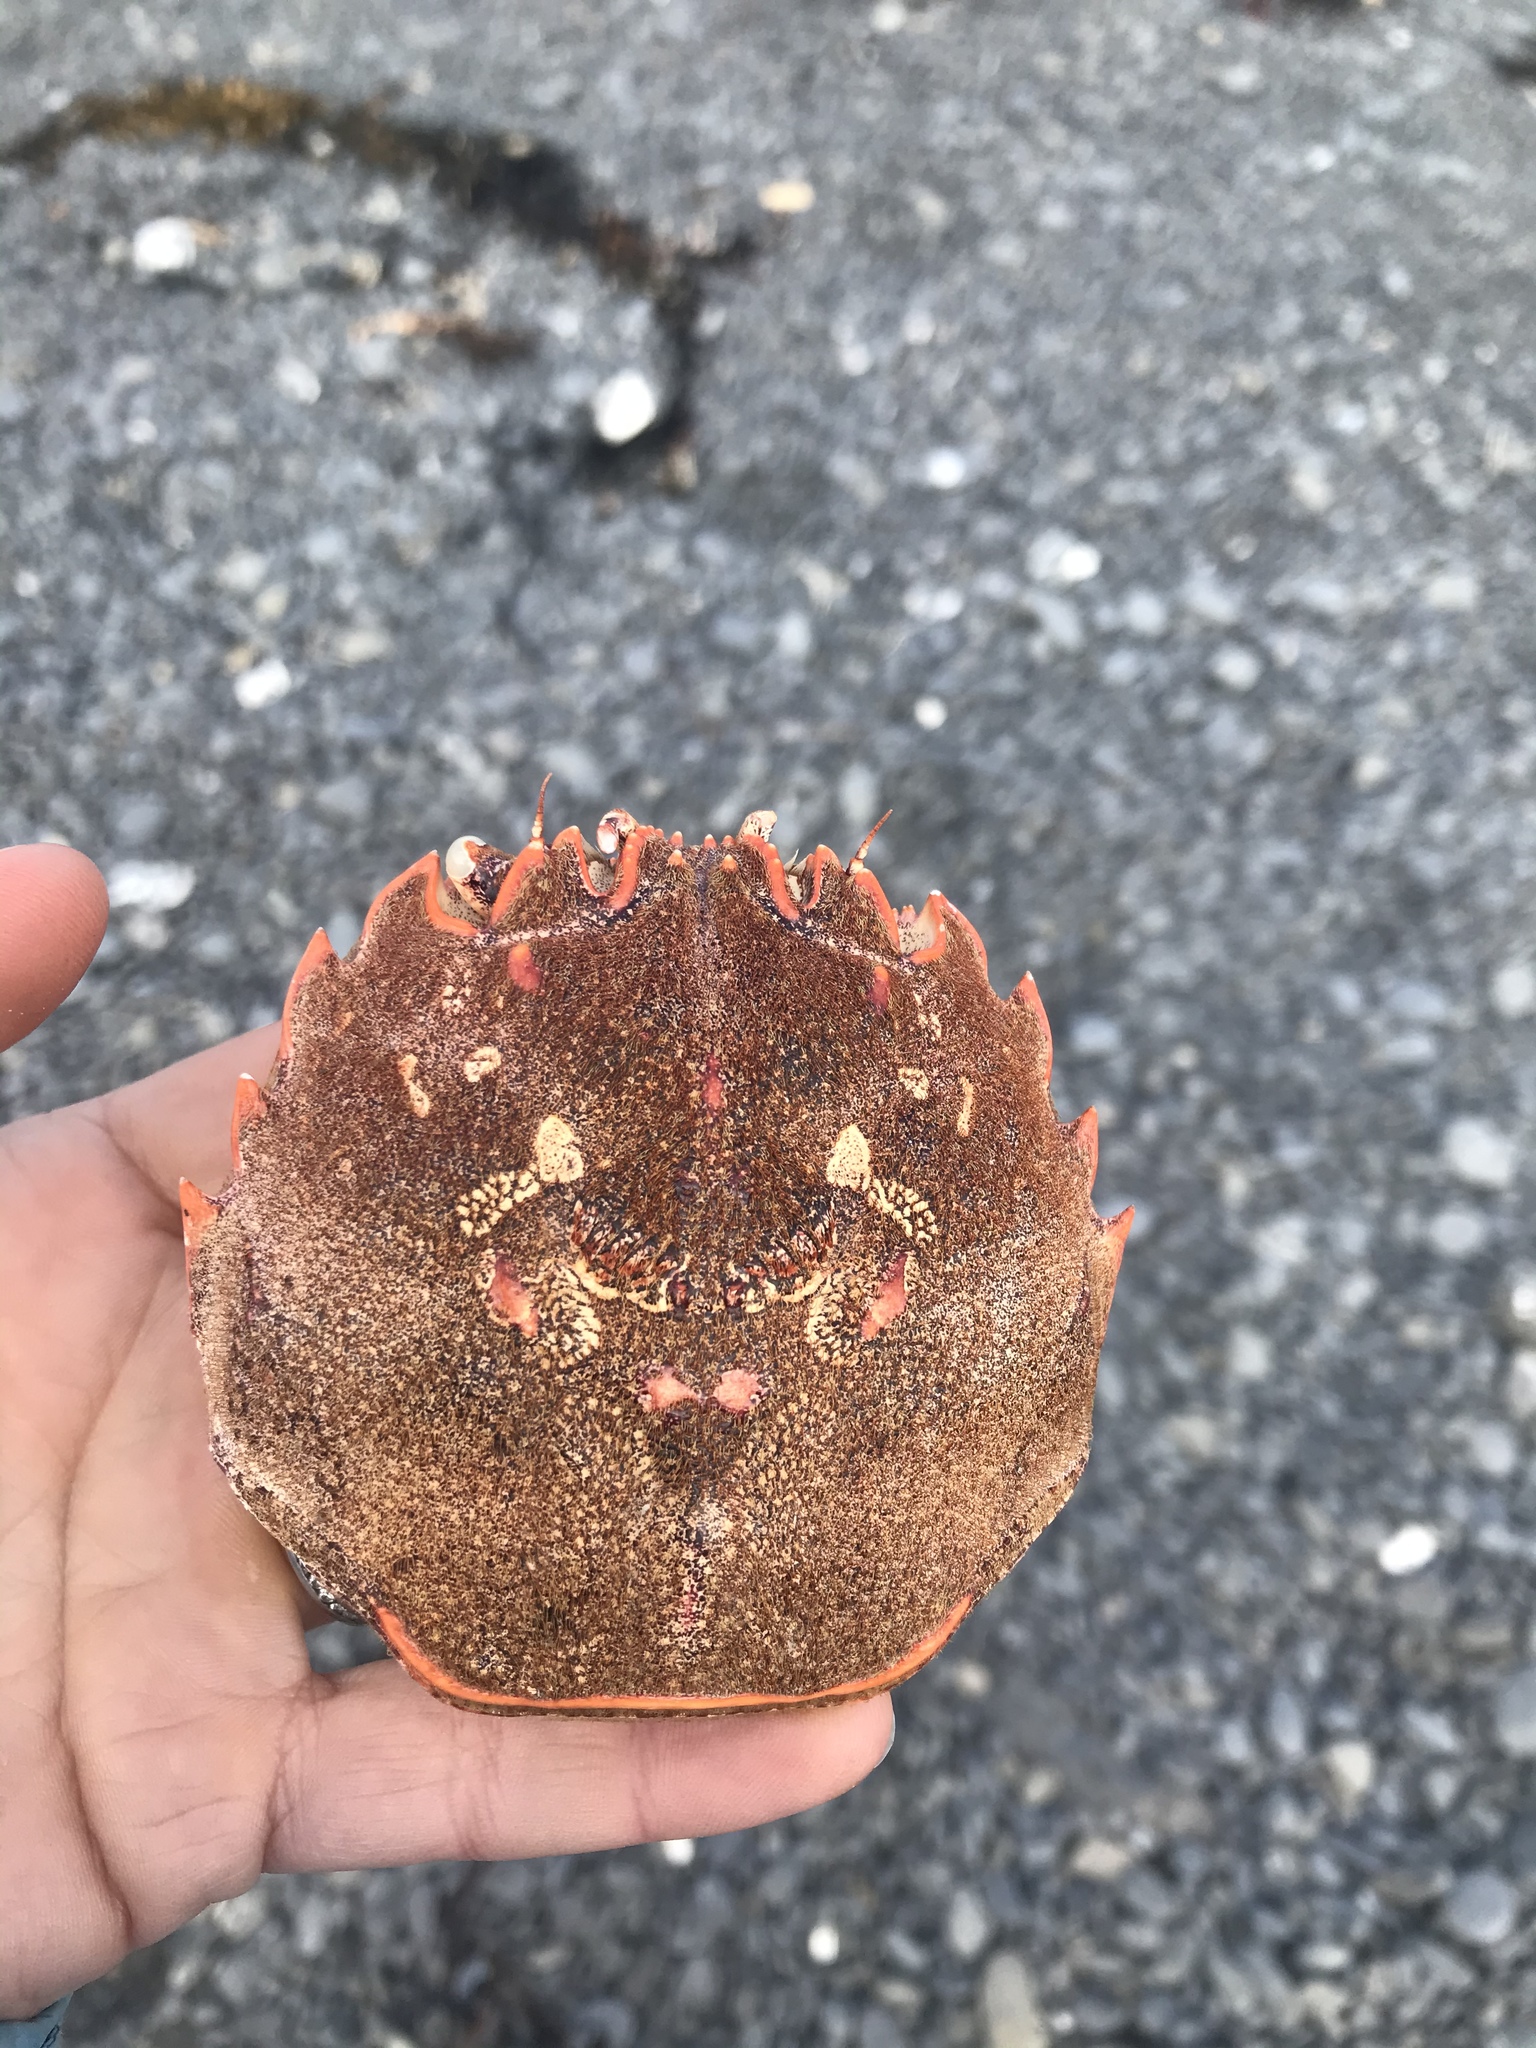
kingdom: Animalia
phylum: Arthropoda
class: Malacostraca
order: Decapoda
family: Plagusiidae
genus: Guinusia
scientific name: Guinusia chabrus
